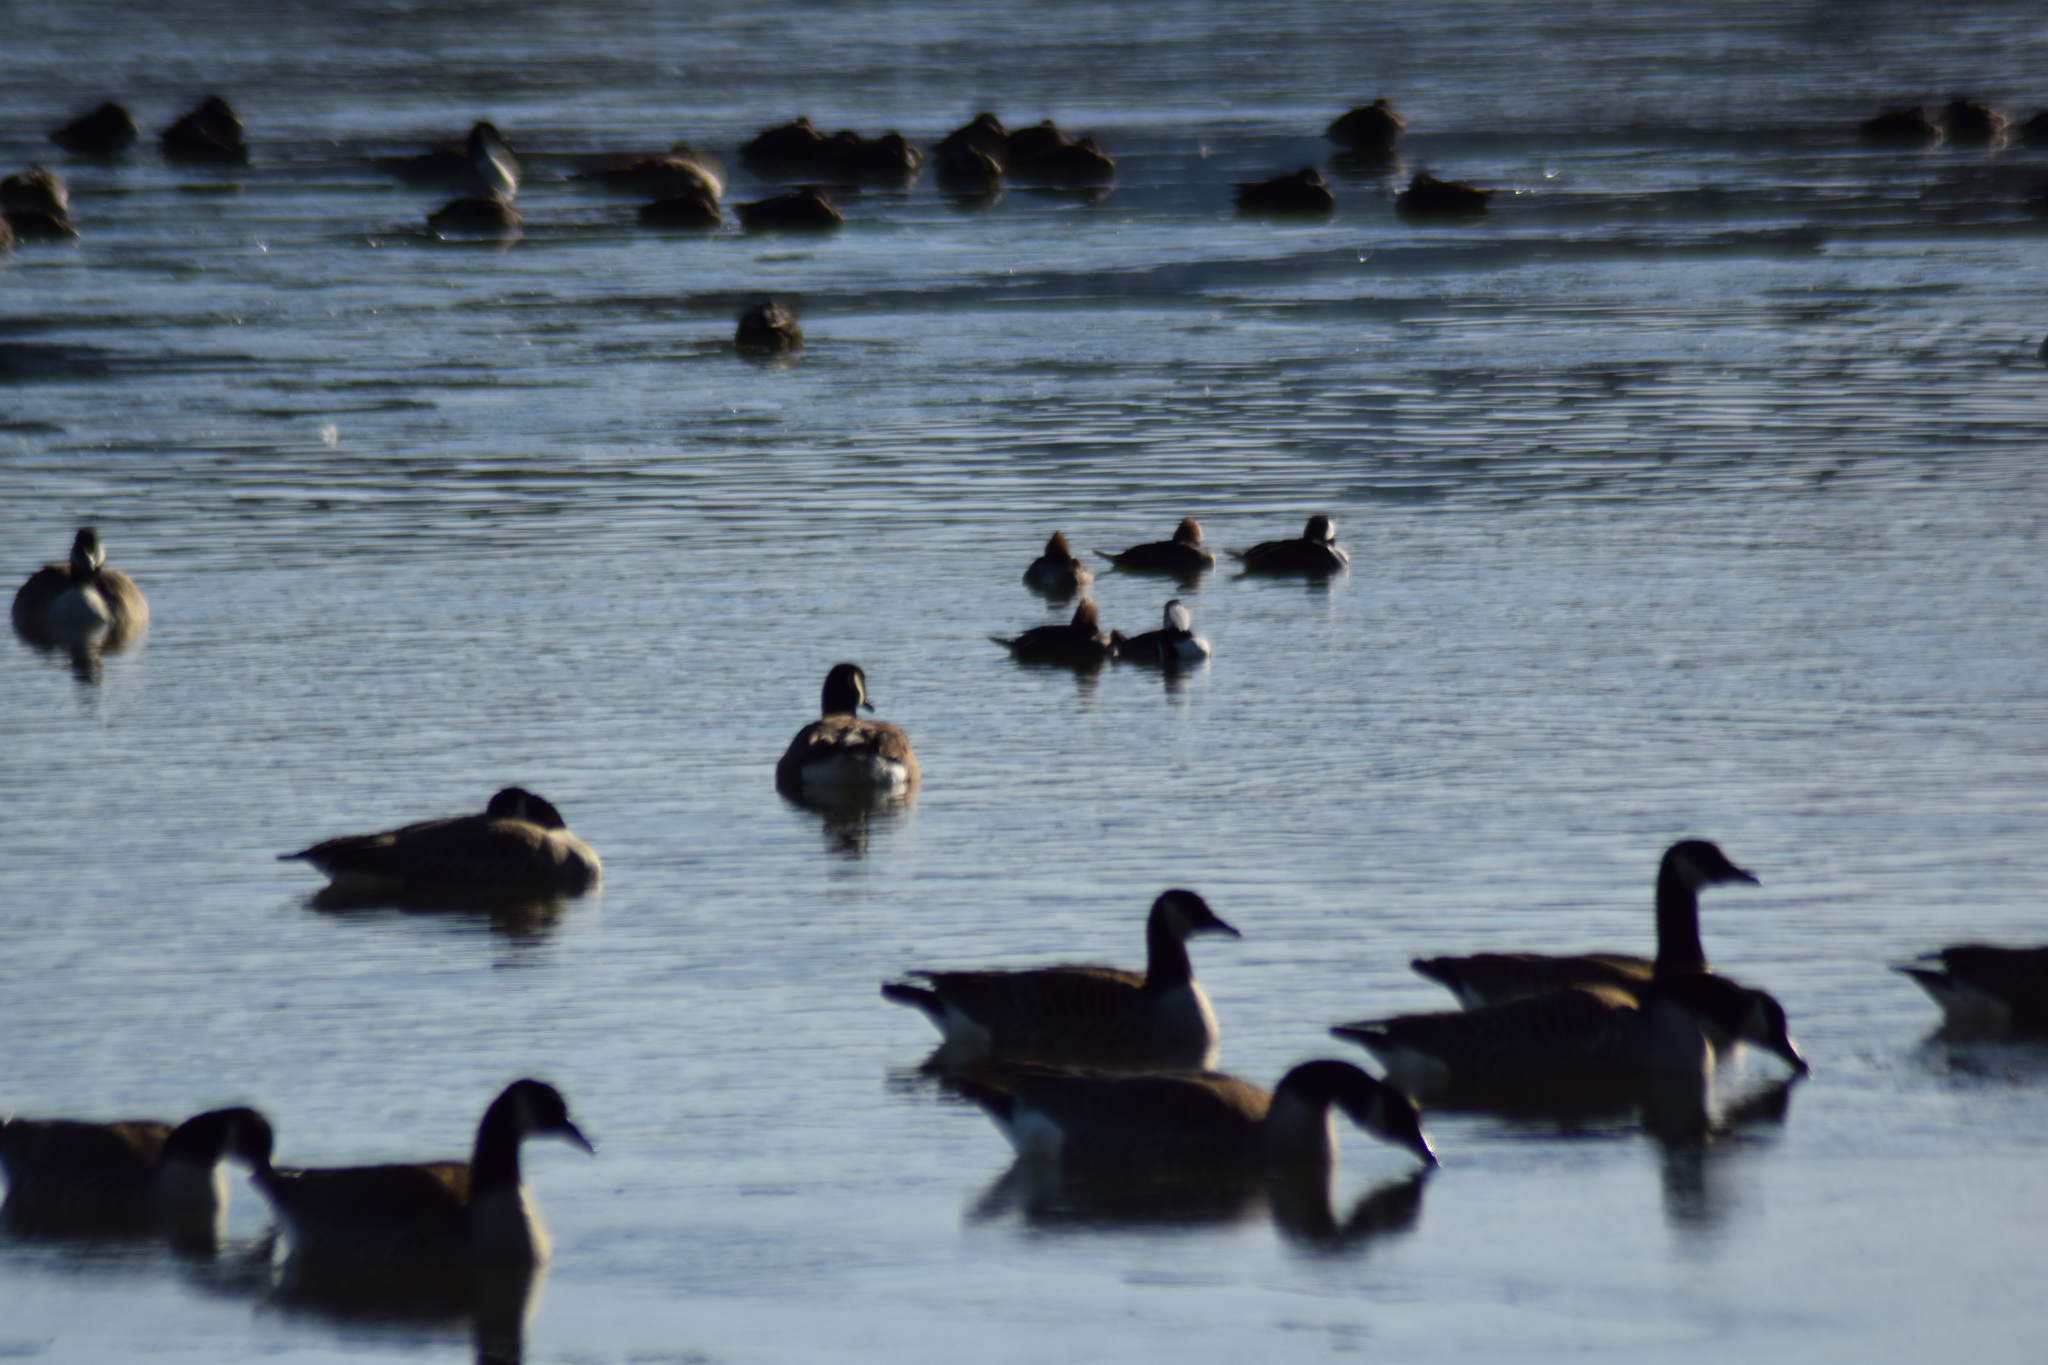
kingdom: Animalia
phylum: Chordata
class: Aves
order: Anseriformes
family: Anatidae
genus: Bucephala
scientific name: Bucephala albeola
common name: Bufflehead
